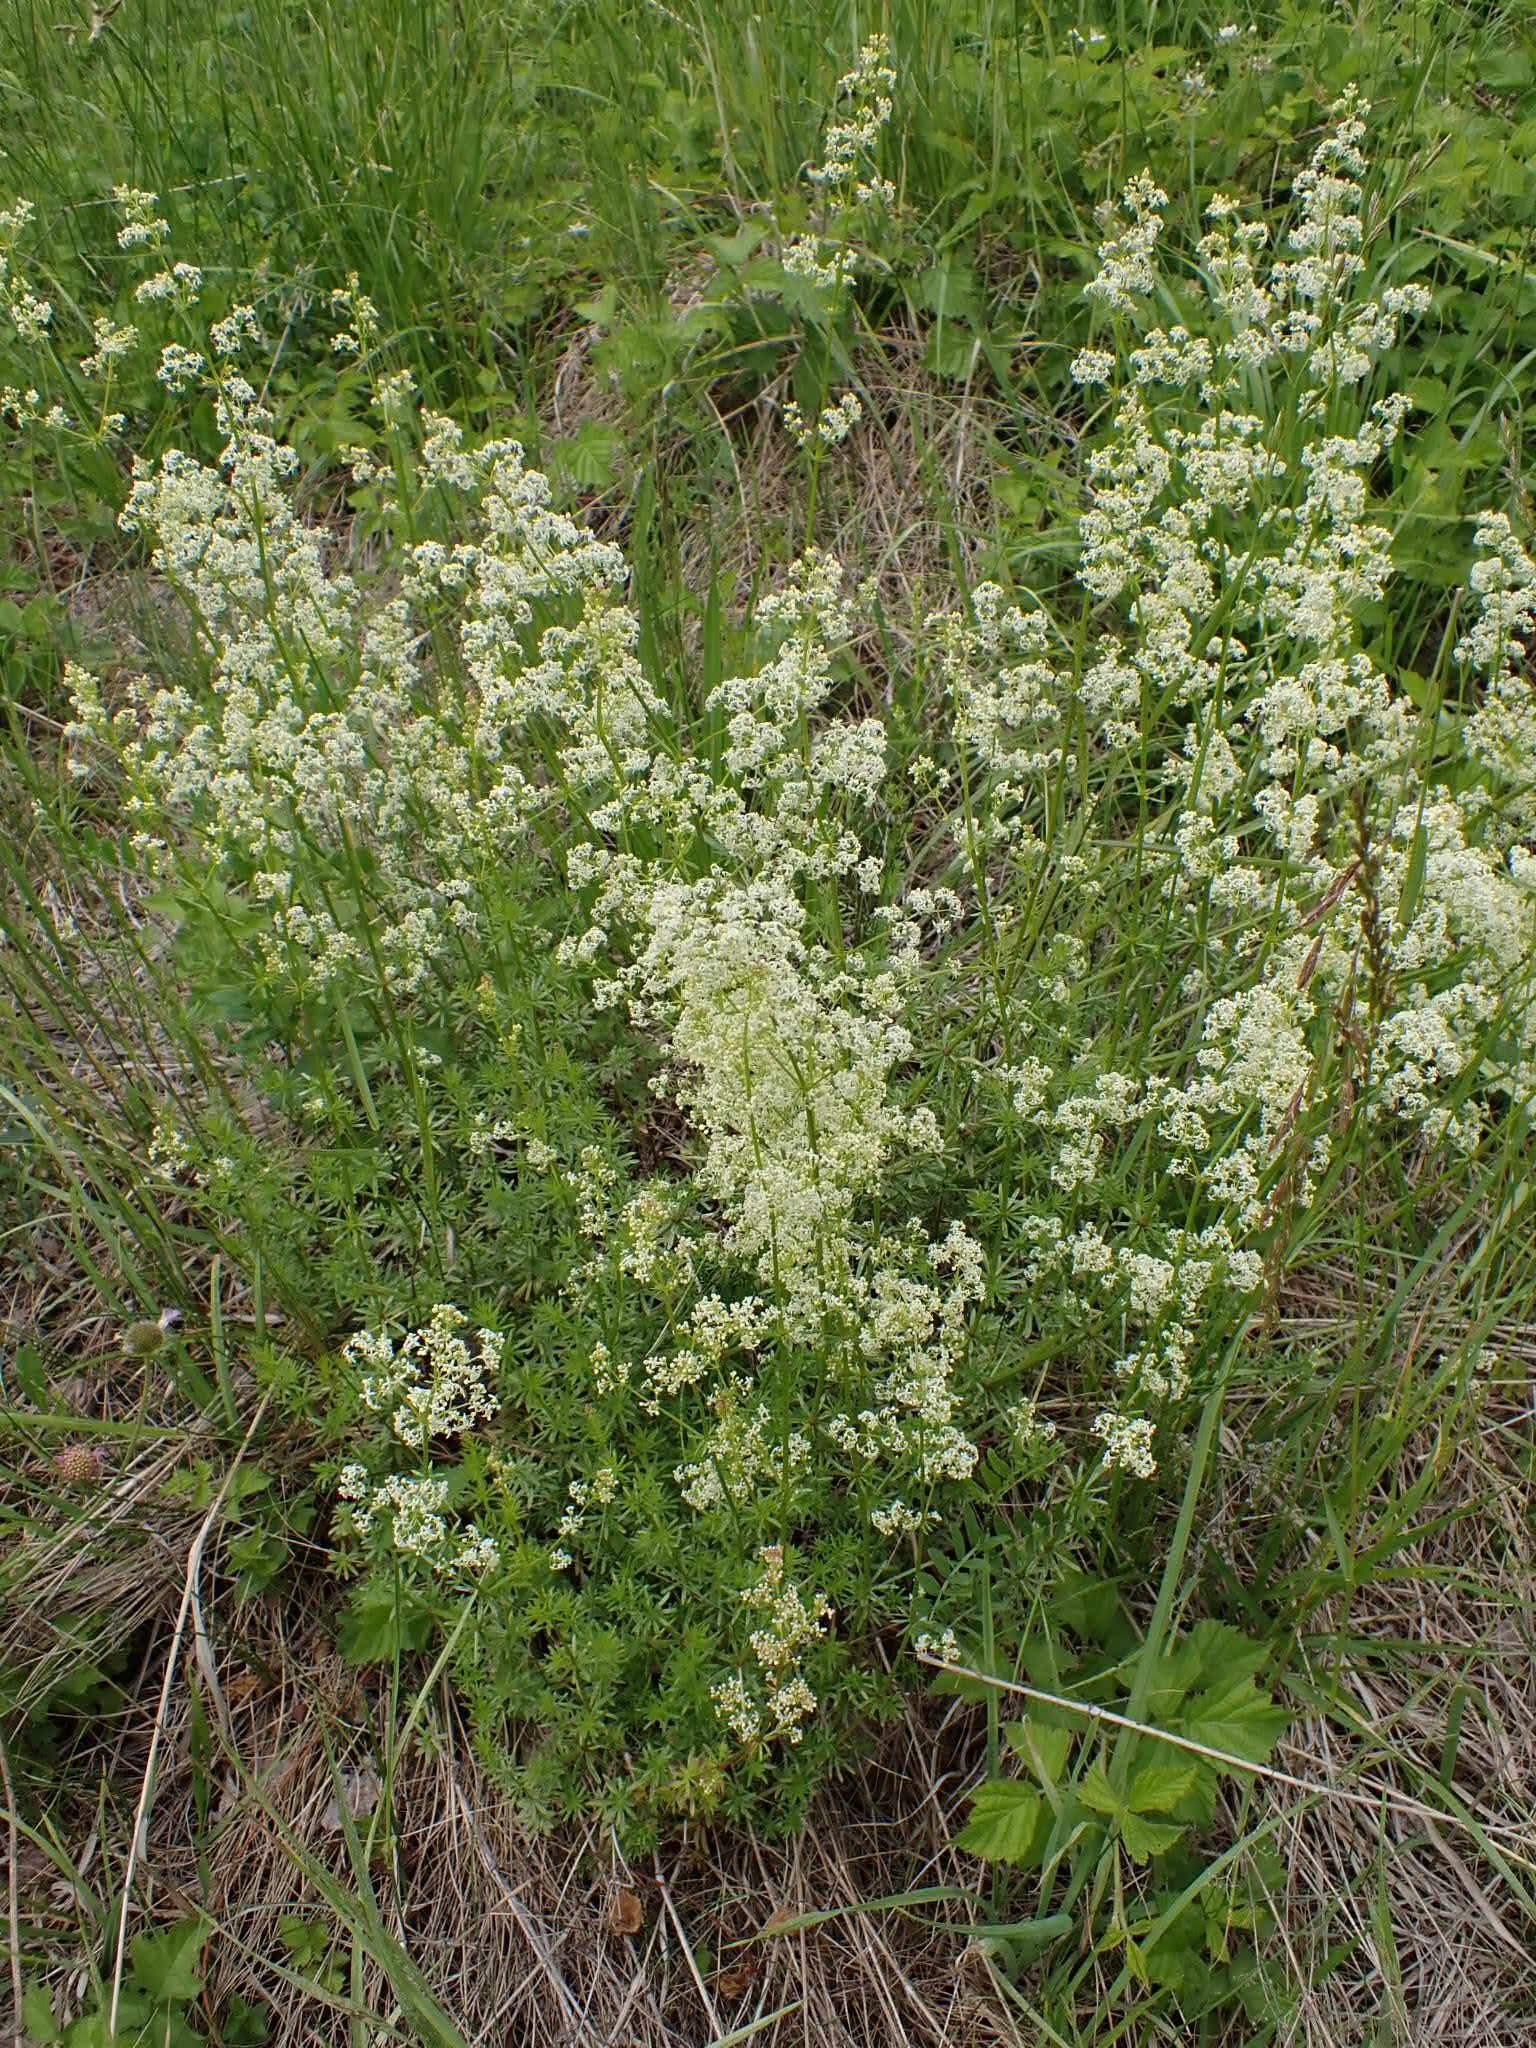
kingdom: Plantae
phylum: Tracheophyta
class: Magnoliopsida
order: Gentianales
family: Rubiaceae
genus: Galium
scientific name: Galium mollugo
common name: Hedge bedstraw
